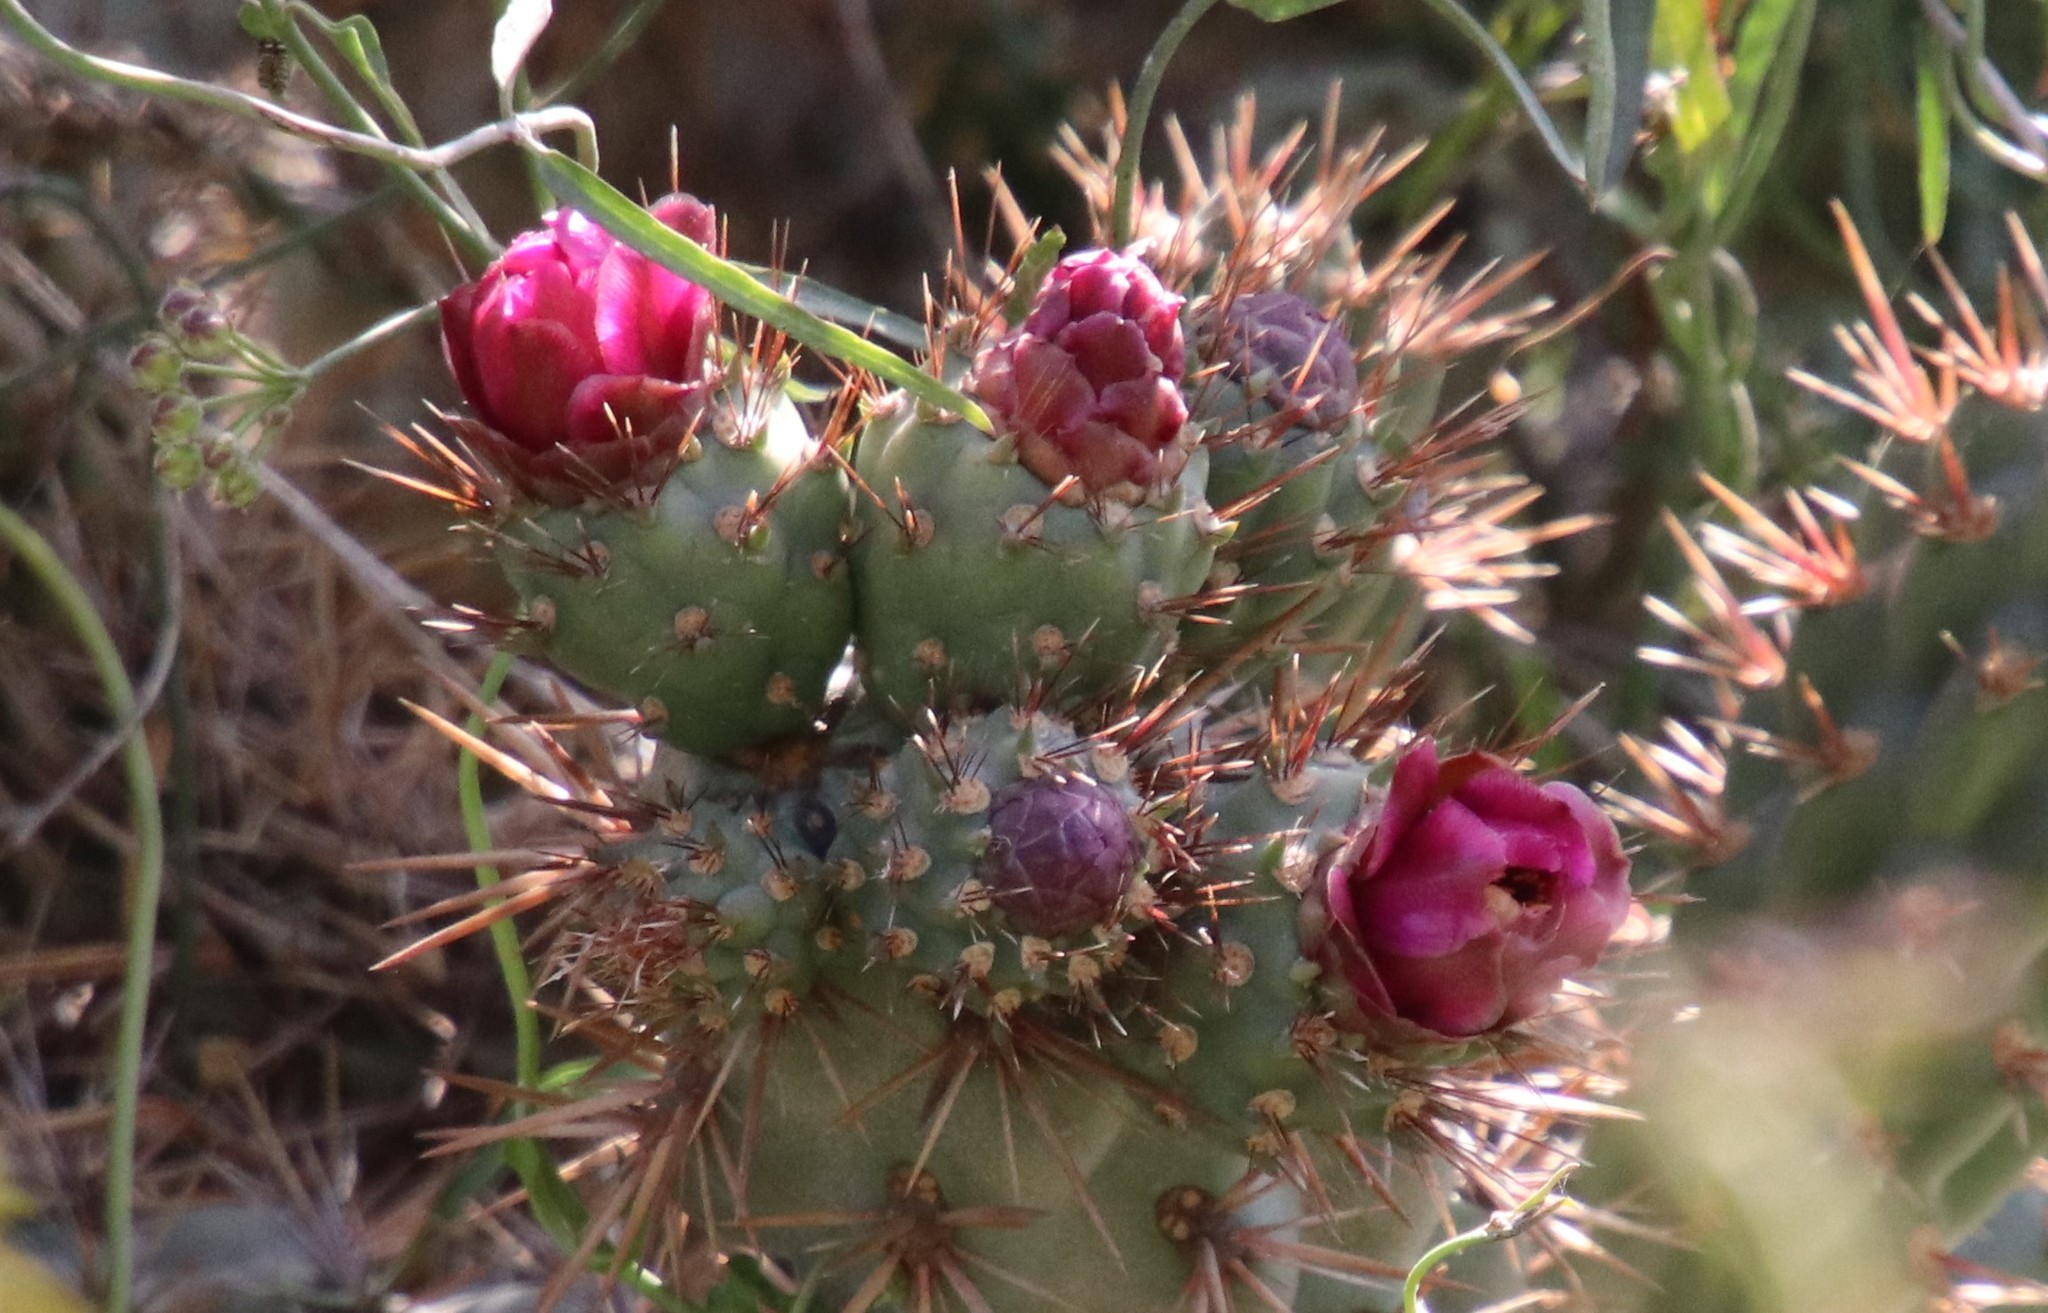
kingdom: Plantae
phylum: Tracheophyta
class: Magnoliopsida
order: Caryophyllales
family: Cactaceae
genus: Cylindropuntia
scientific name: Cylindropuntia prolifera
